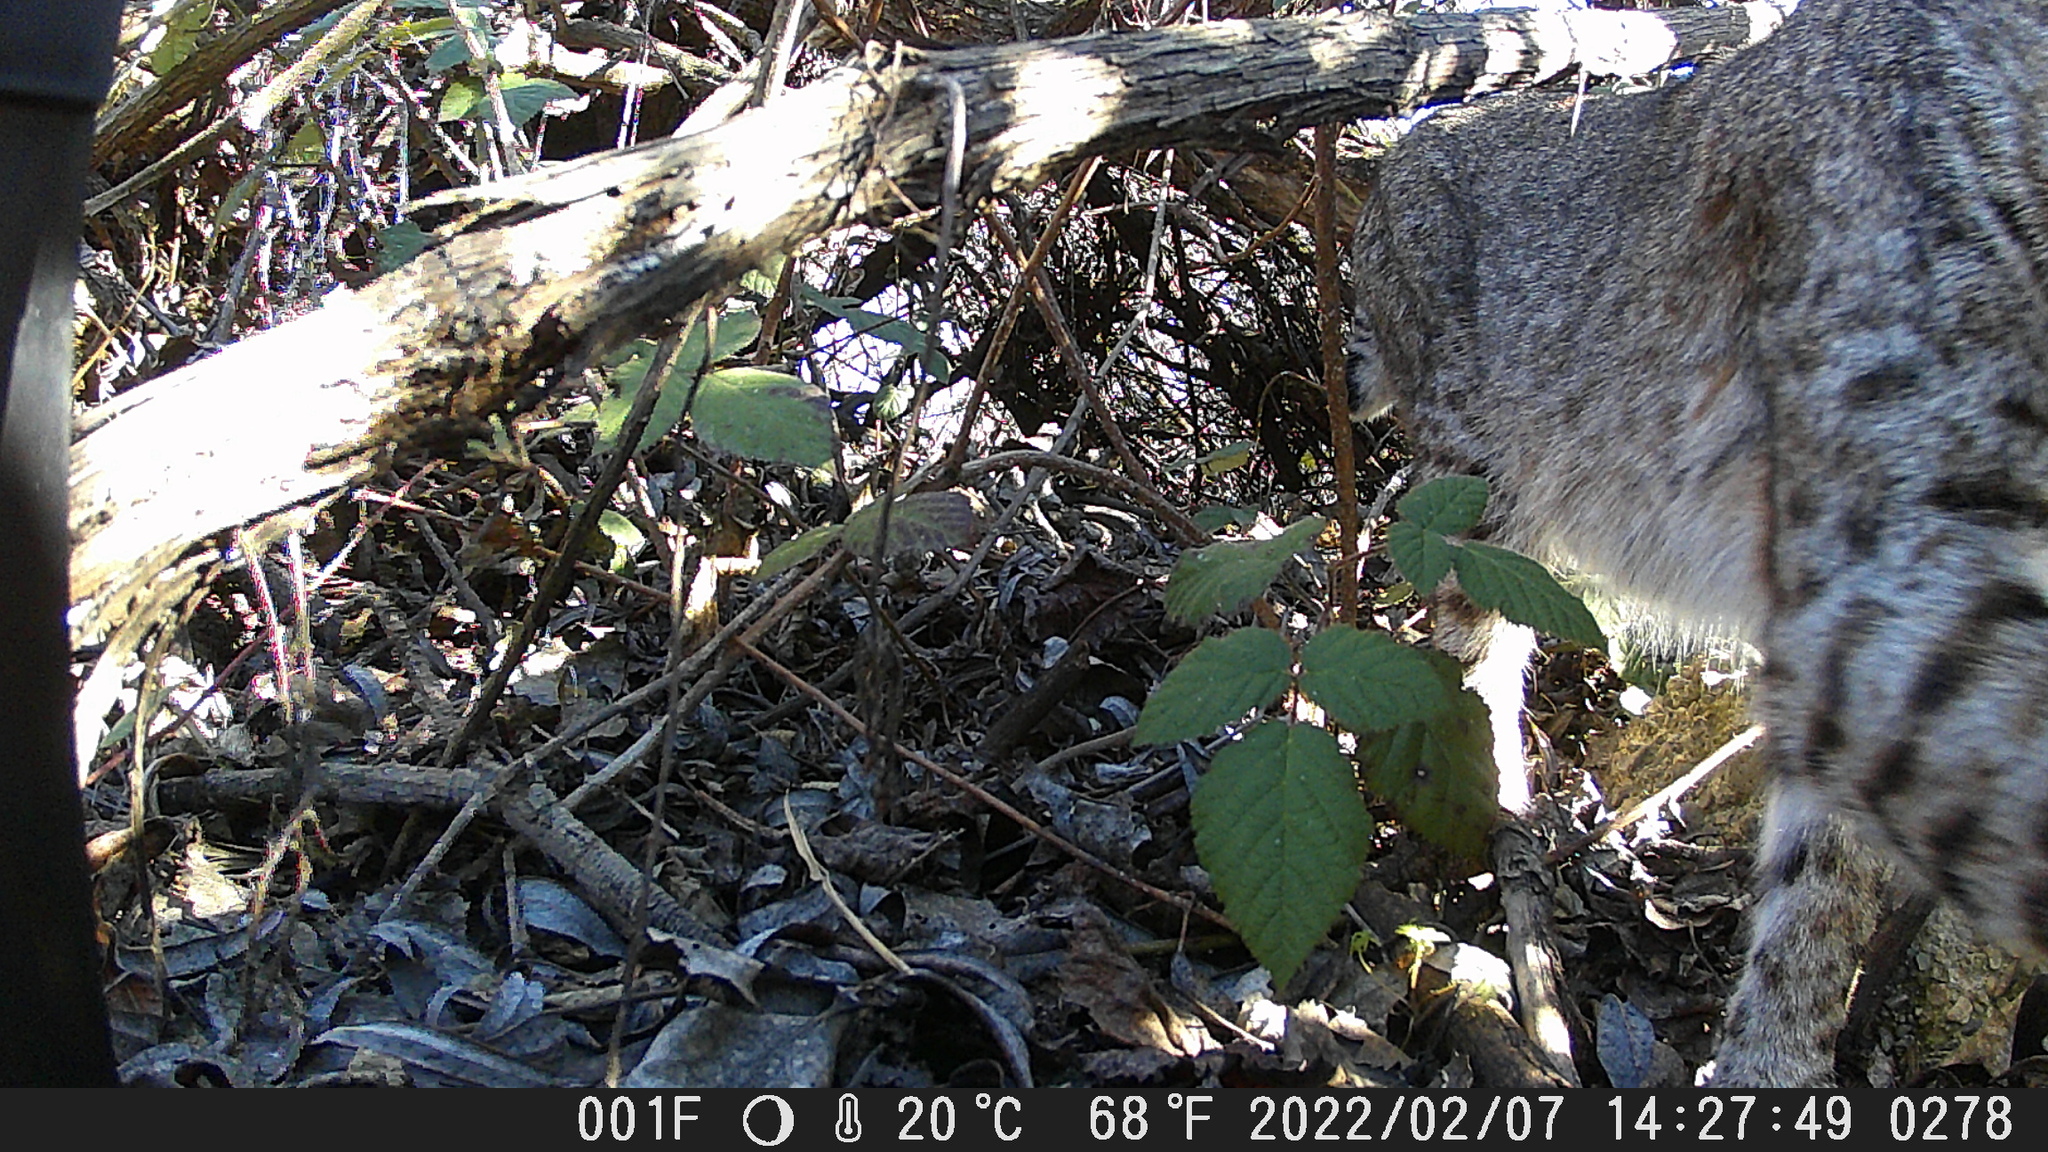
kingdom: Animalia
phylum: Chordata
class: Mammalia
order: Carnivora
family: Felidae
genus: Lynx
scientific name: Lynx rufus
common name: Bobcat
